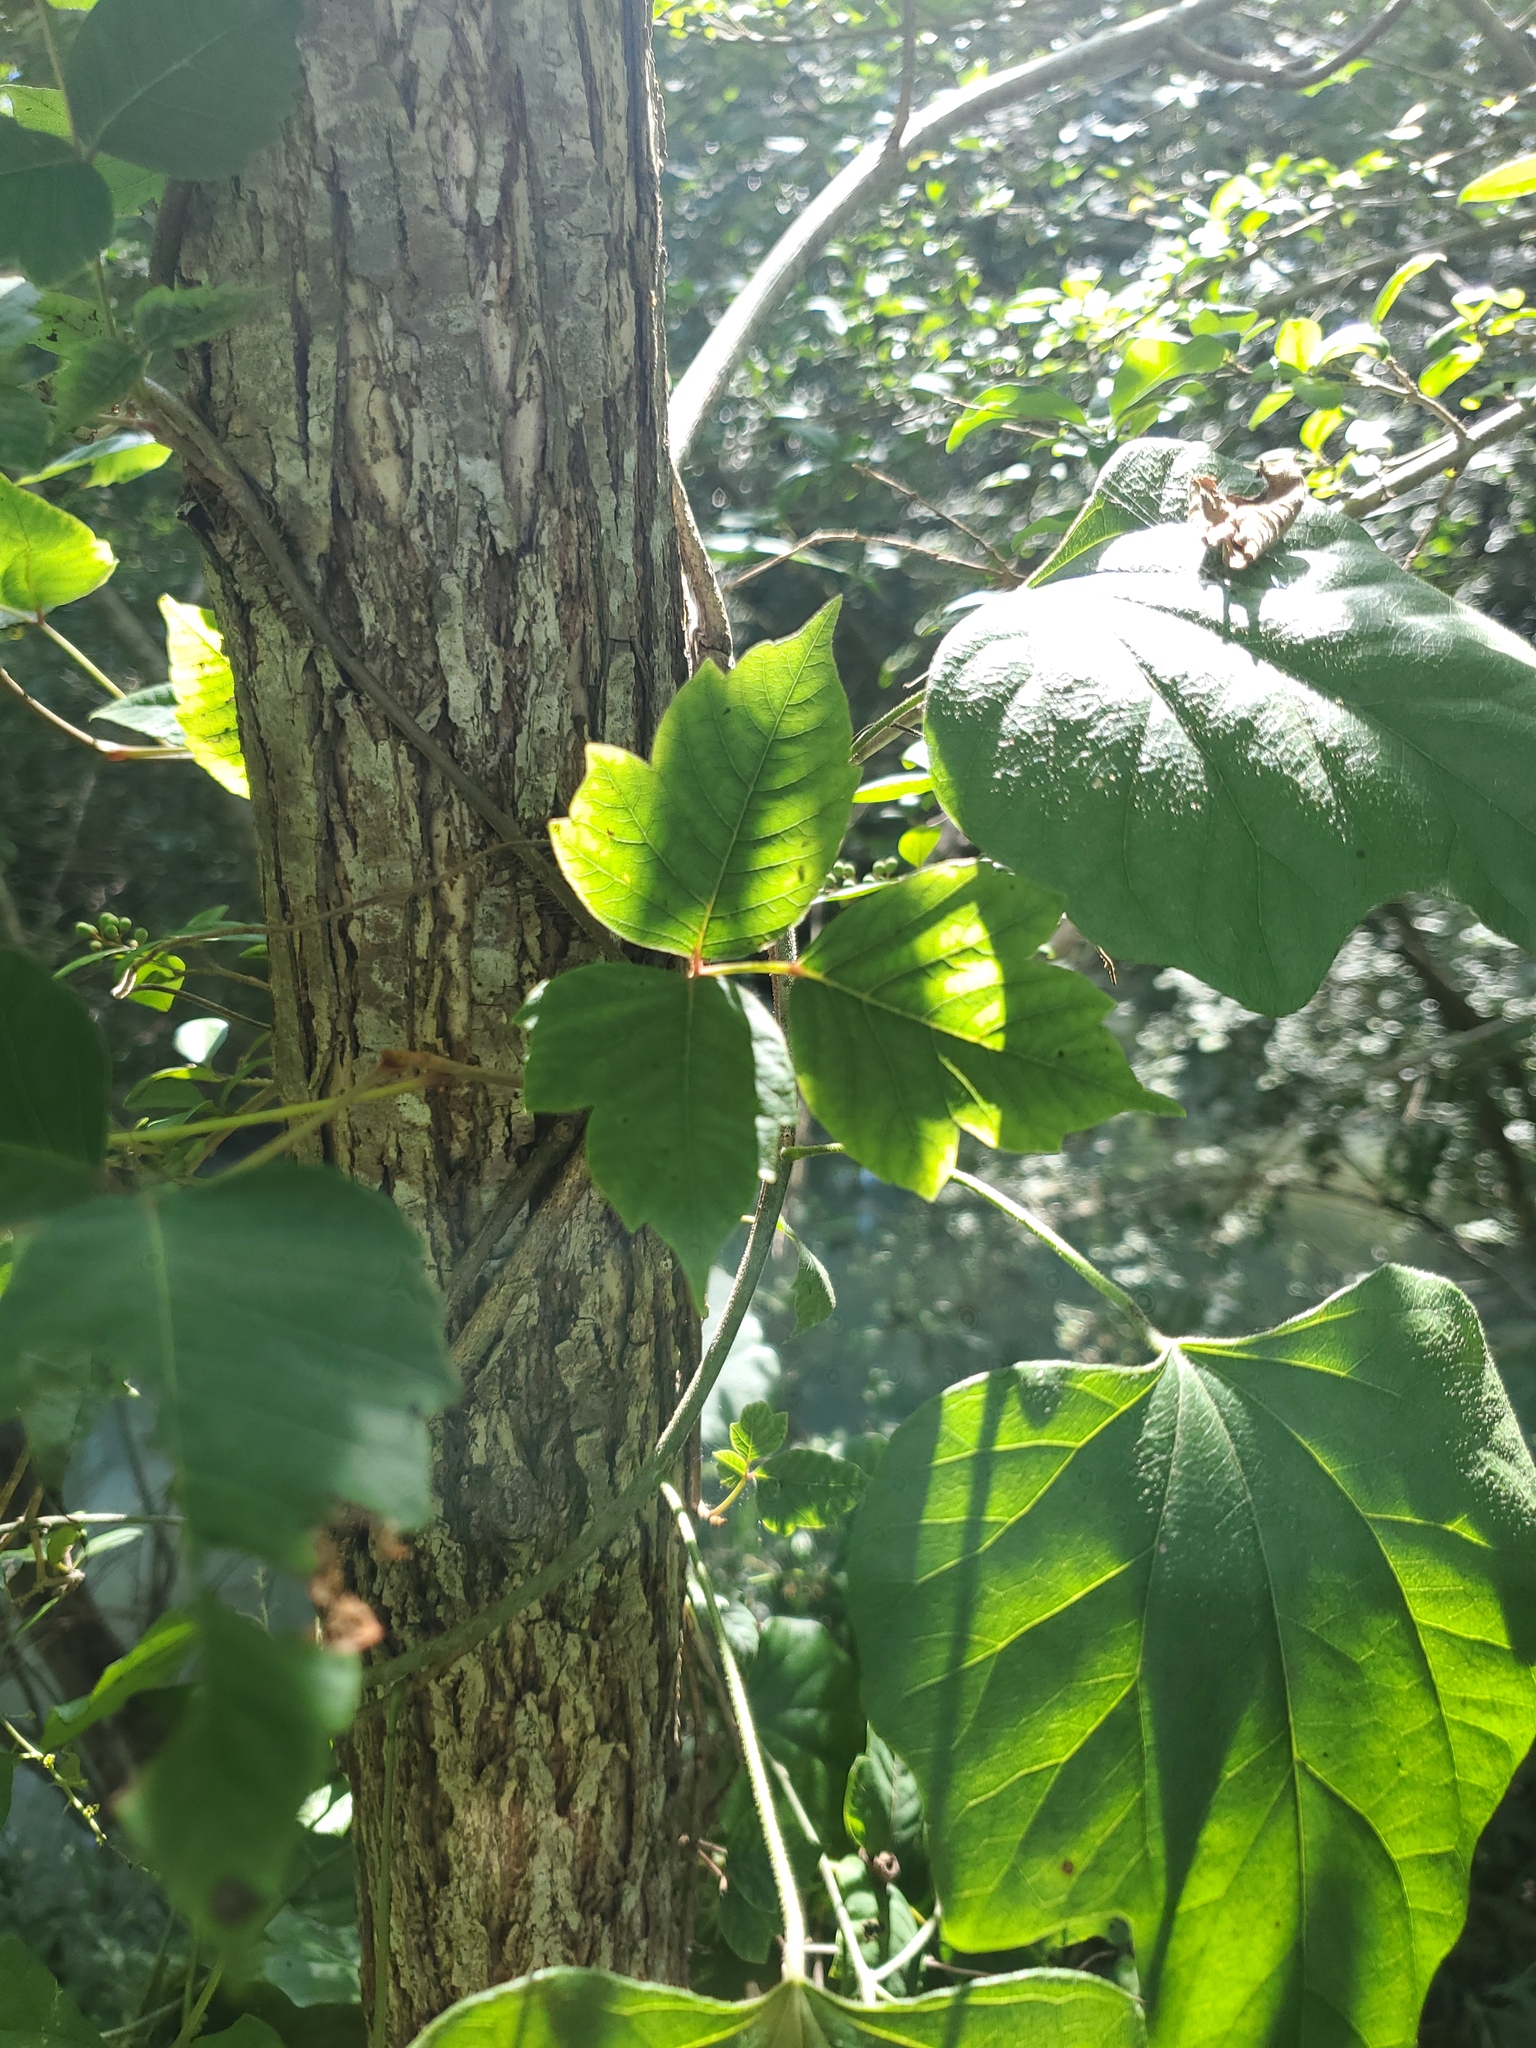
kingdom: Plantae
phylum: Tracheophyta
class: Magnoliopsida
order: Sapindales
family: Anacardiaceae
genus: Toxicodendron
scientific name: Toxicodendron radicans
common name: Poison ivy
